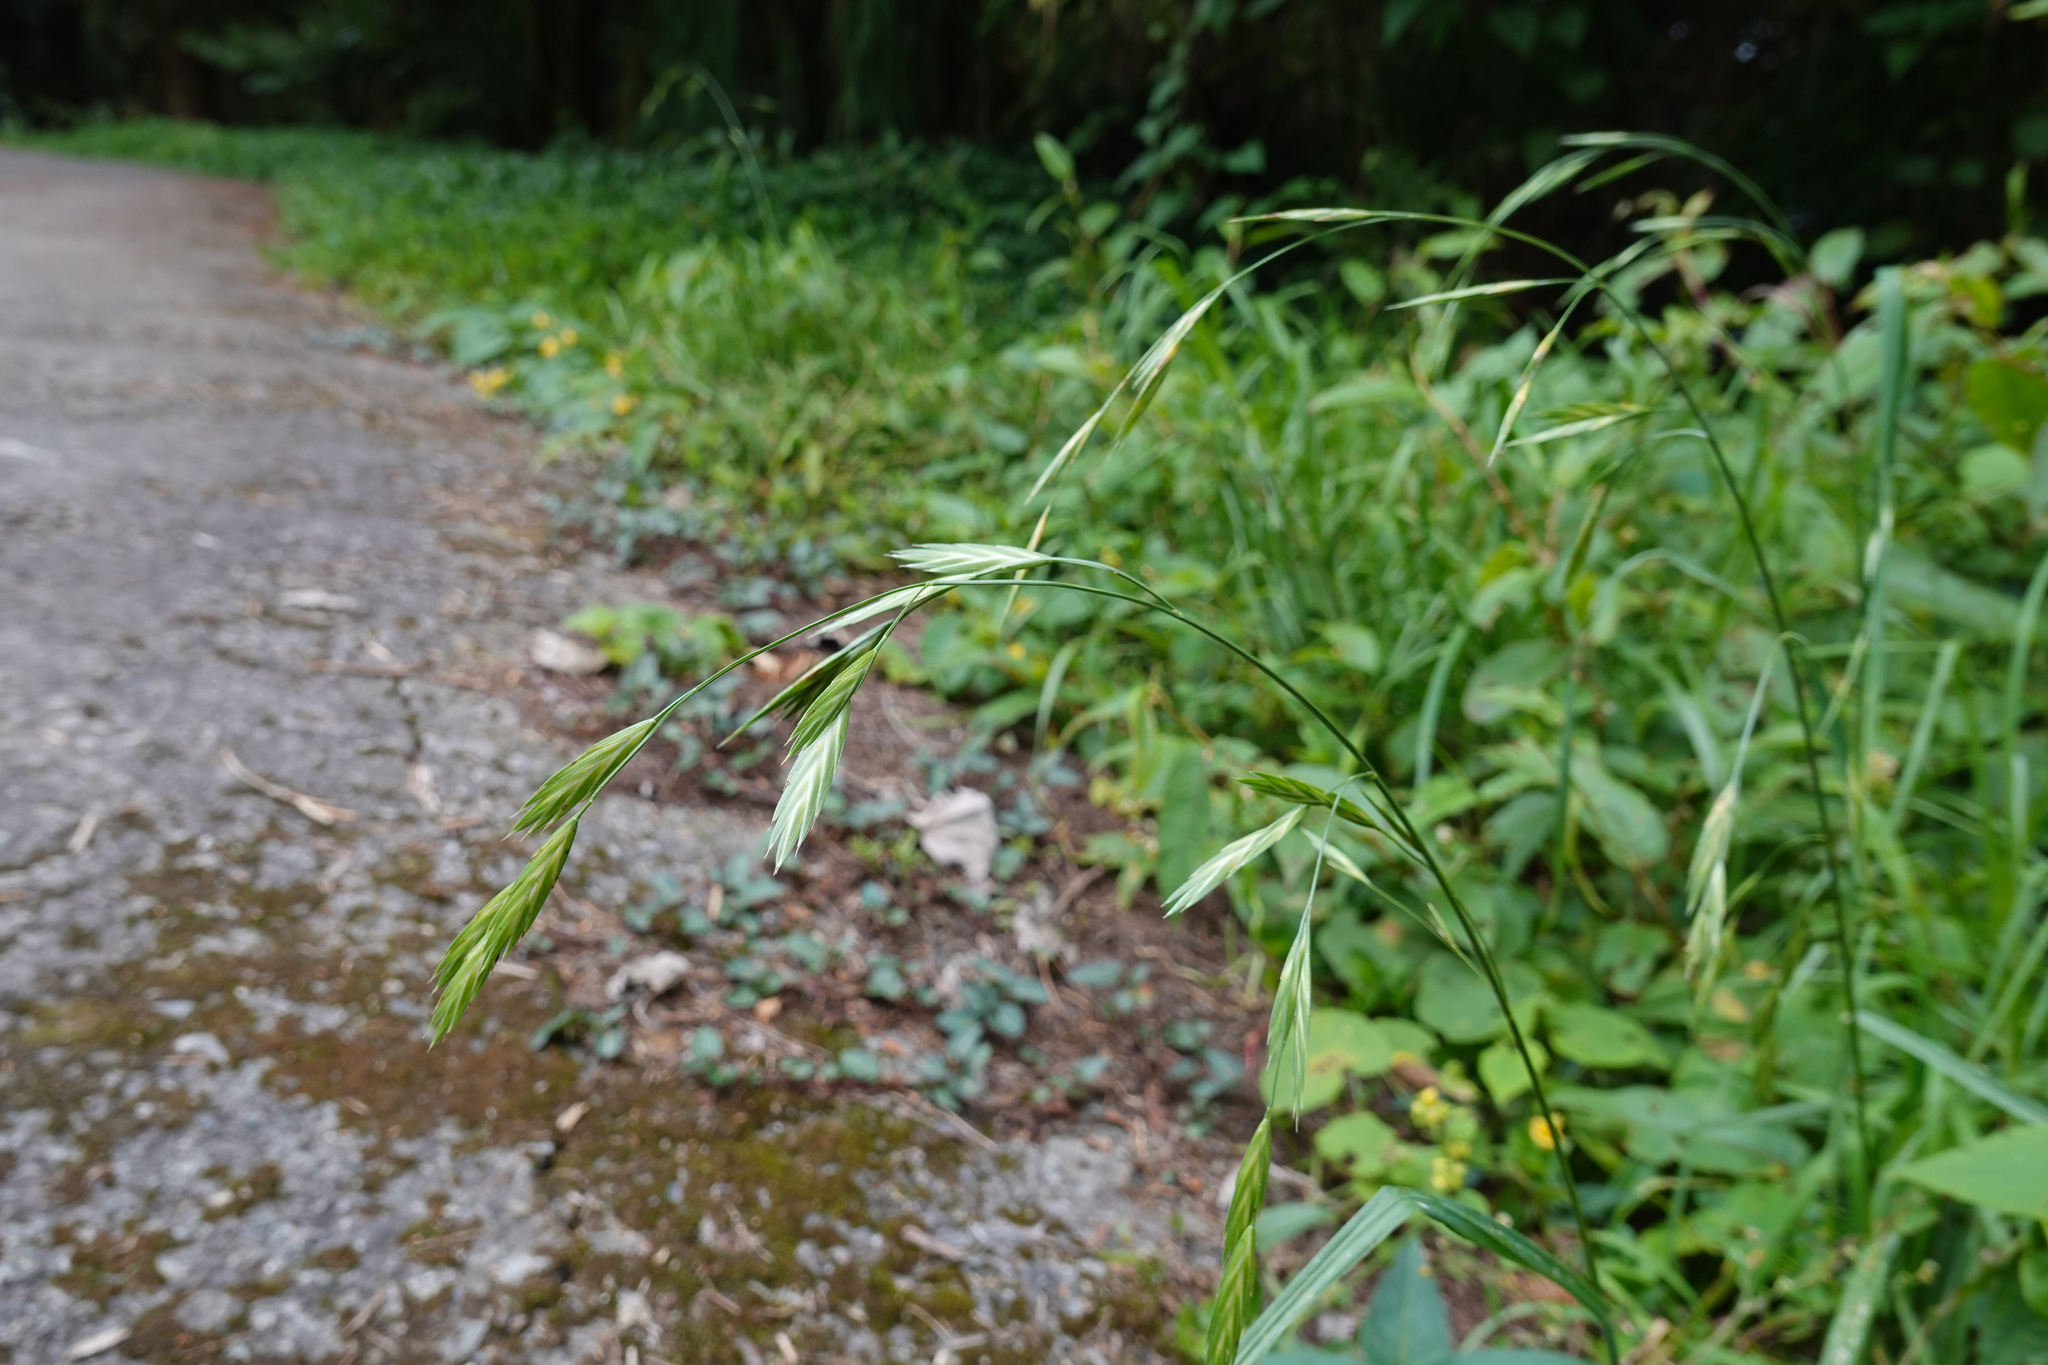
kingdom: Plantae
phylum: Tracheophyta
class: Liliopsida
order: Poales
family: Poaceae
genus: Bromus
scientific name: Bromus catharticus
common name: Rescuegrass
